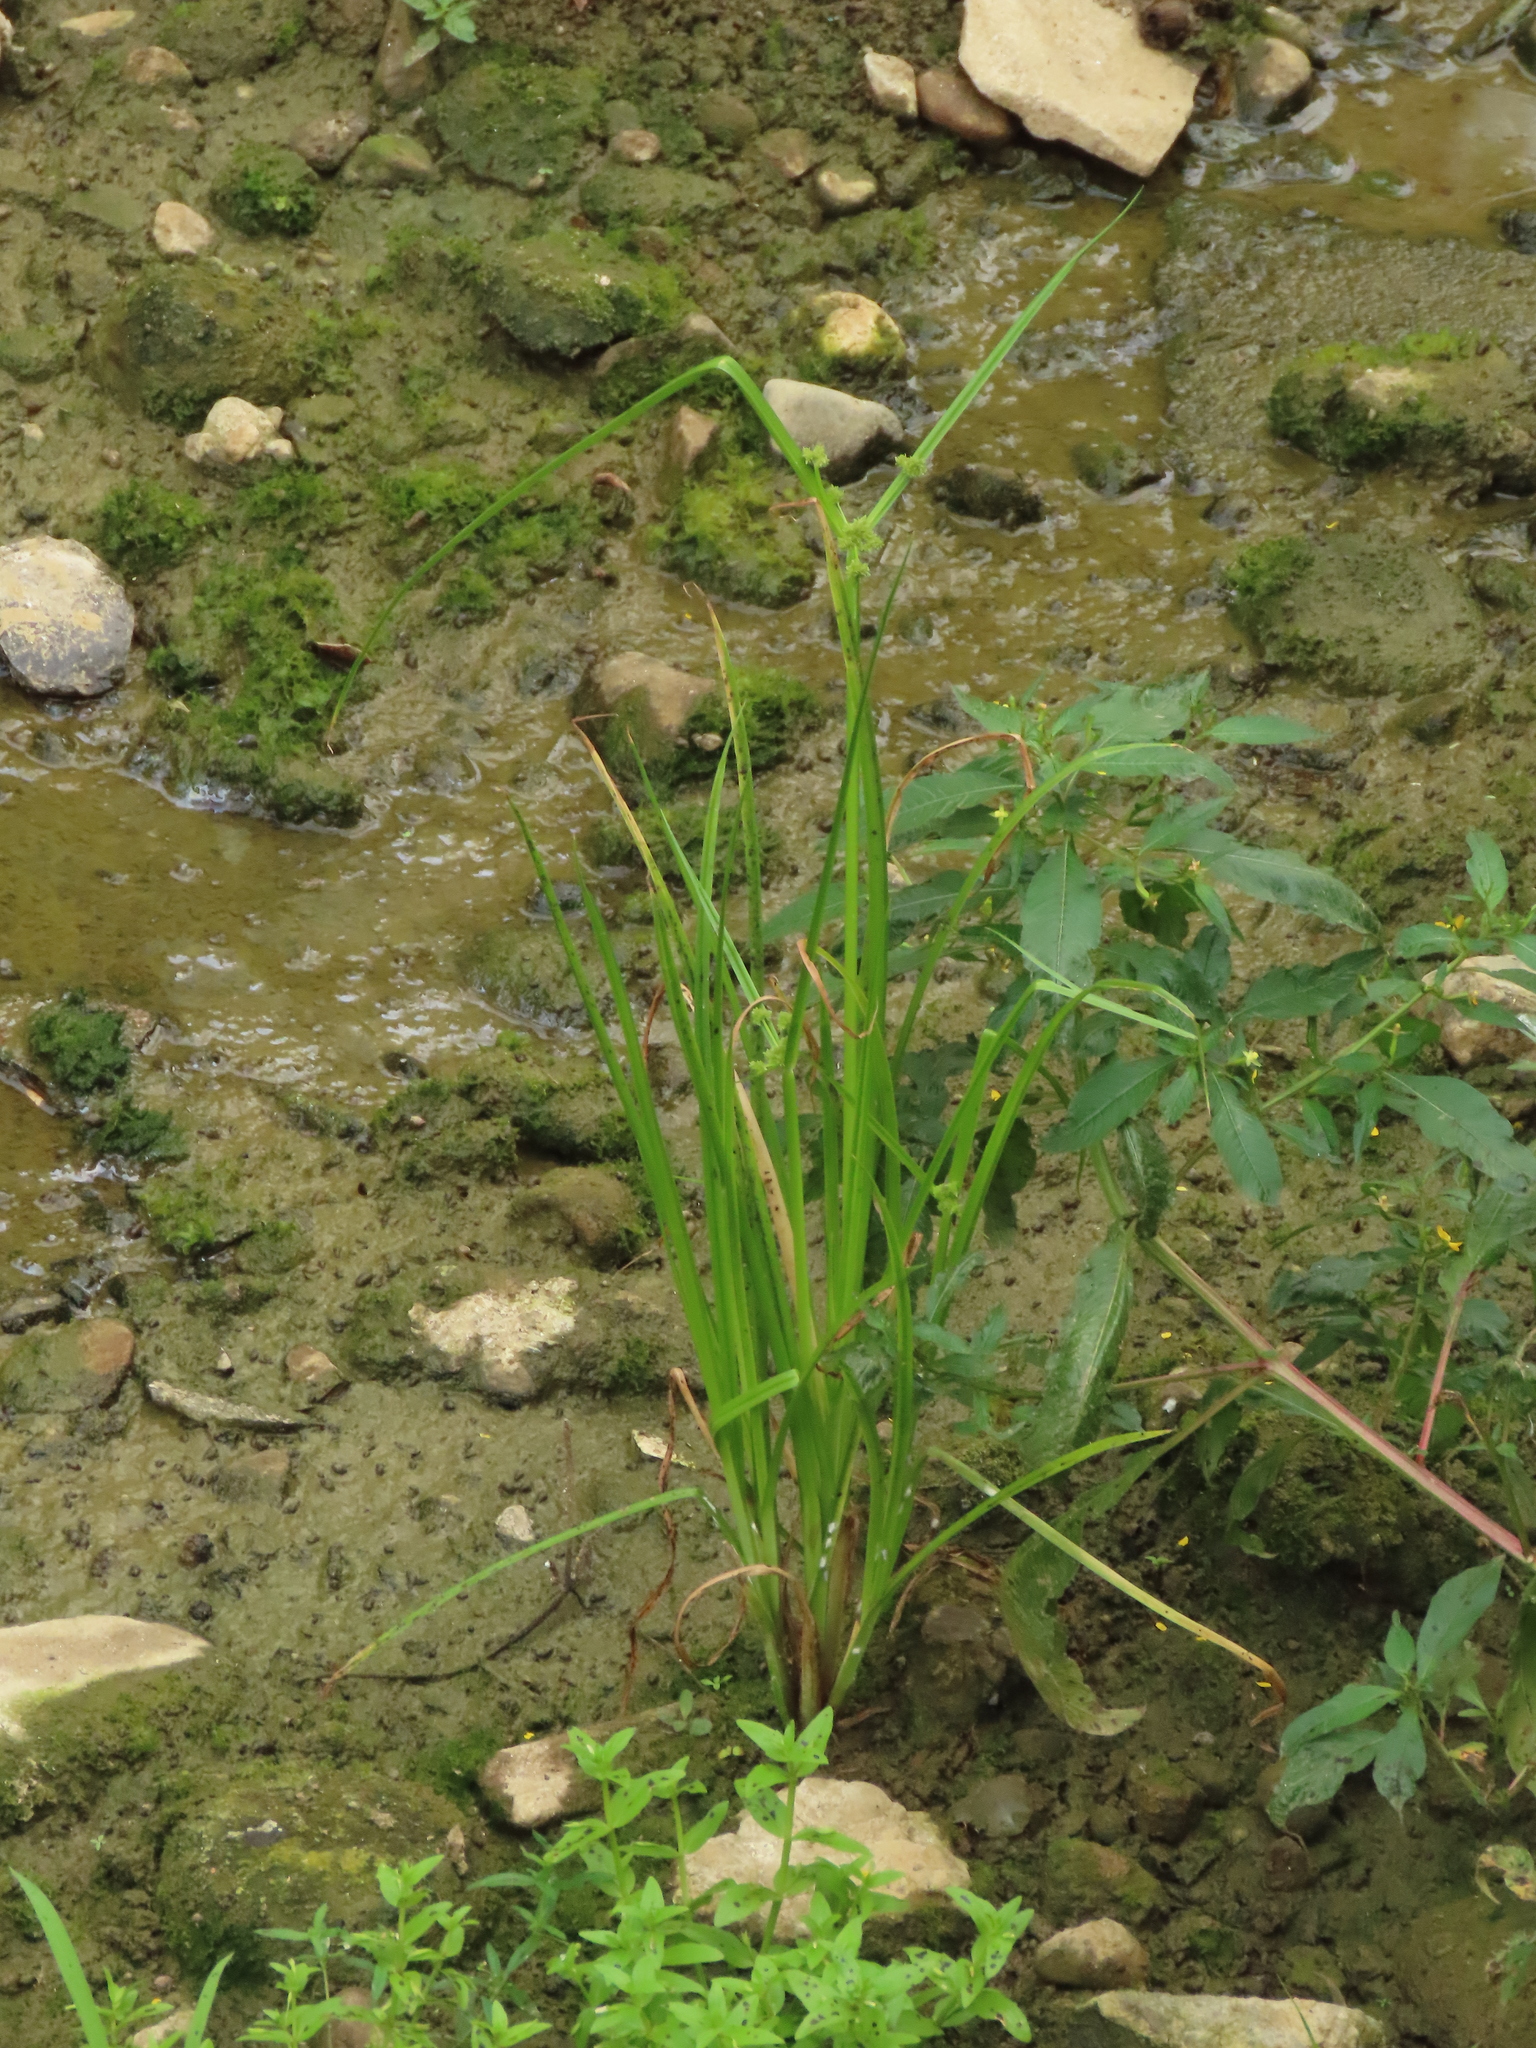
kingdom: Plantae
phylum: Tracheophyta
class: Liliopsida
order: Poales
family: Cyperaceae
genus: Cyperus
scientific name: Cyperus difformis
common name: Variable flatsedge
